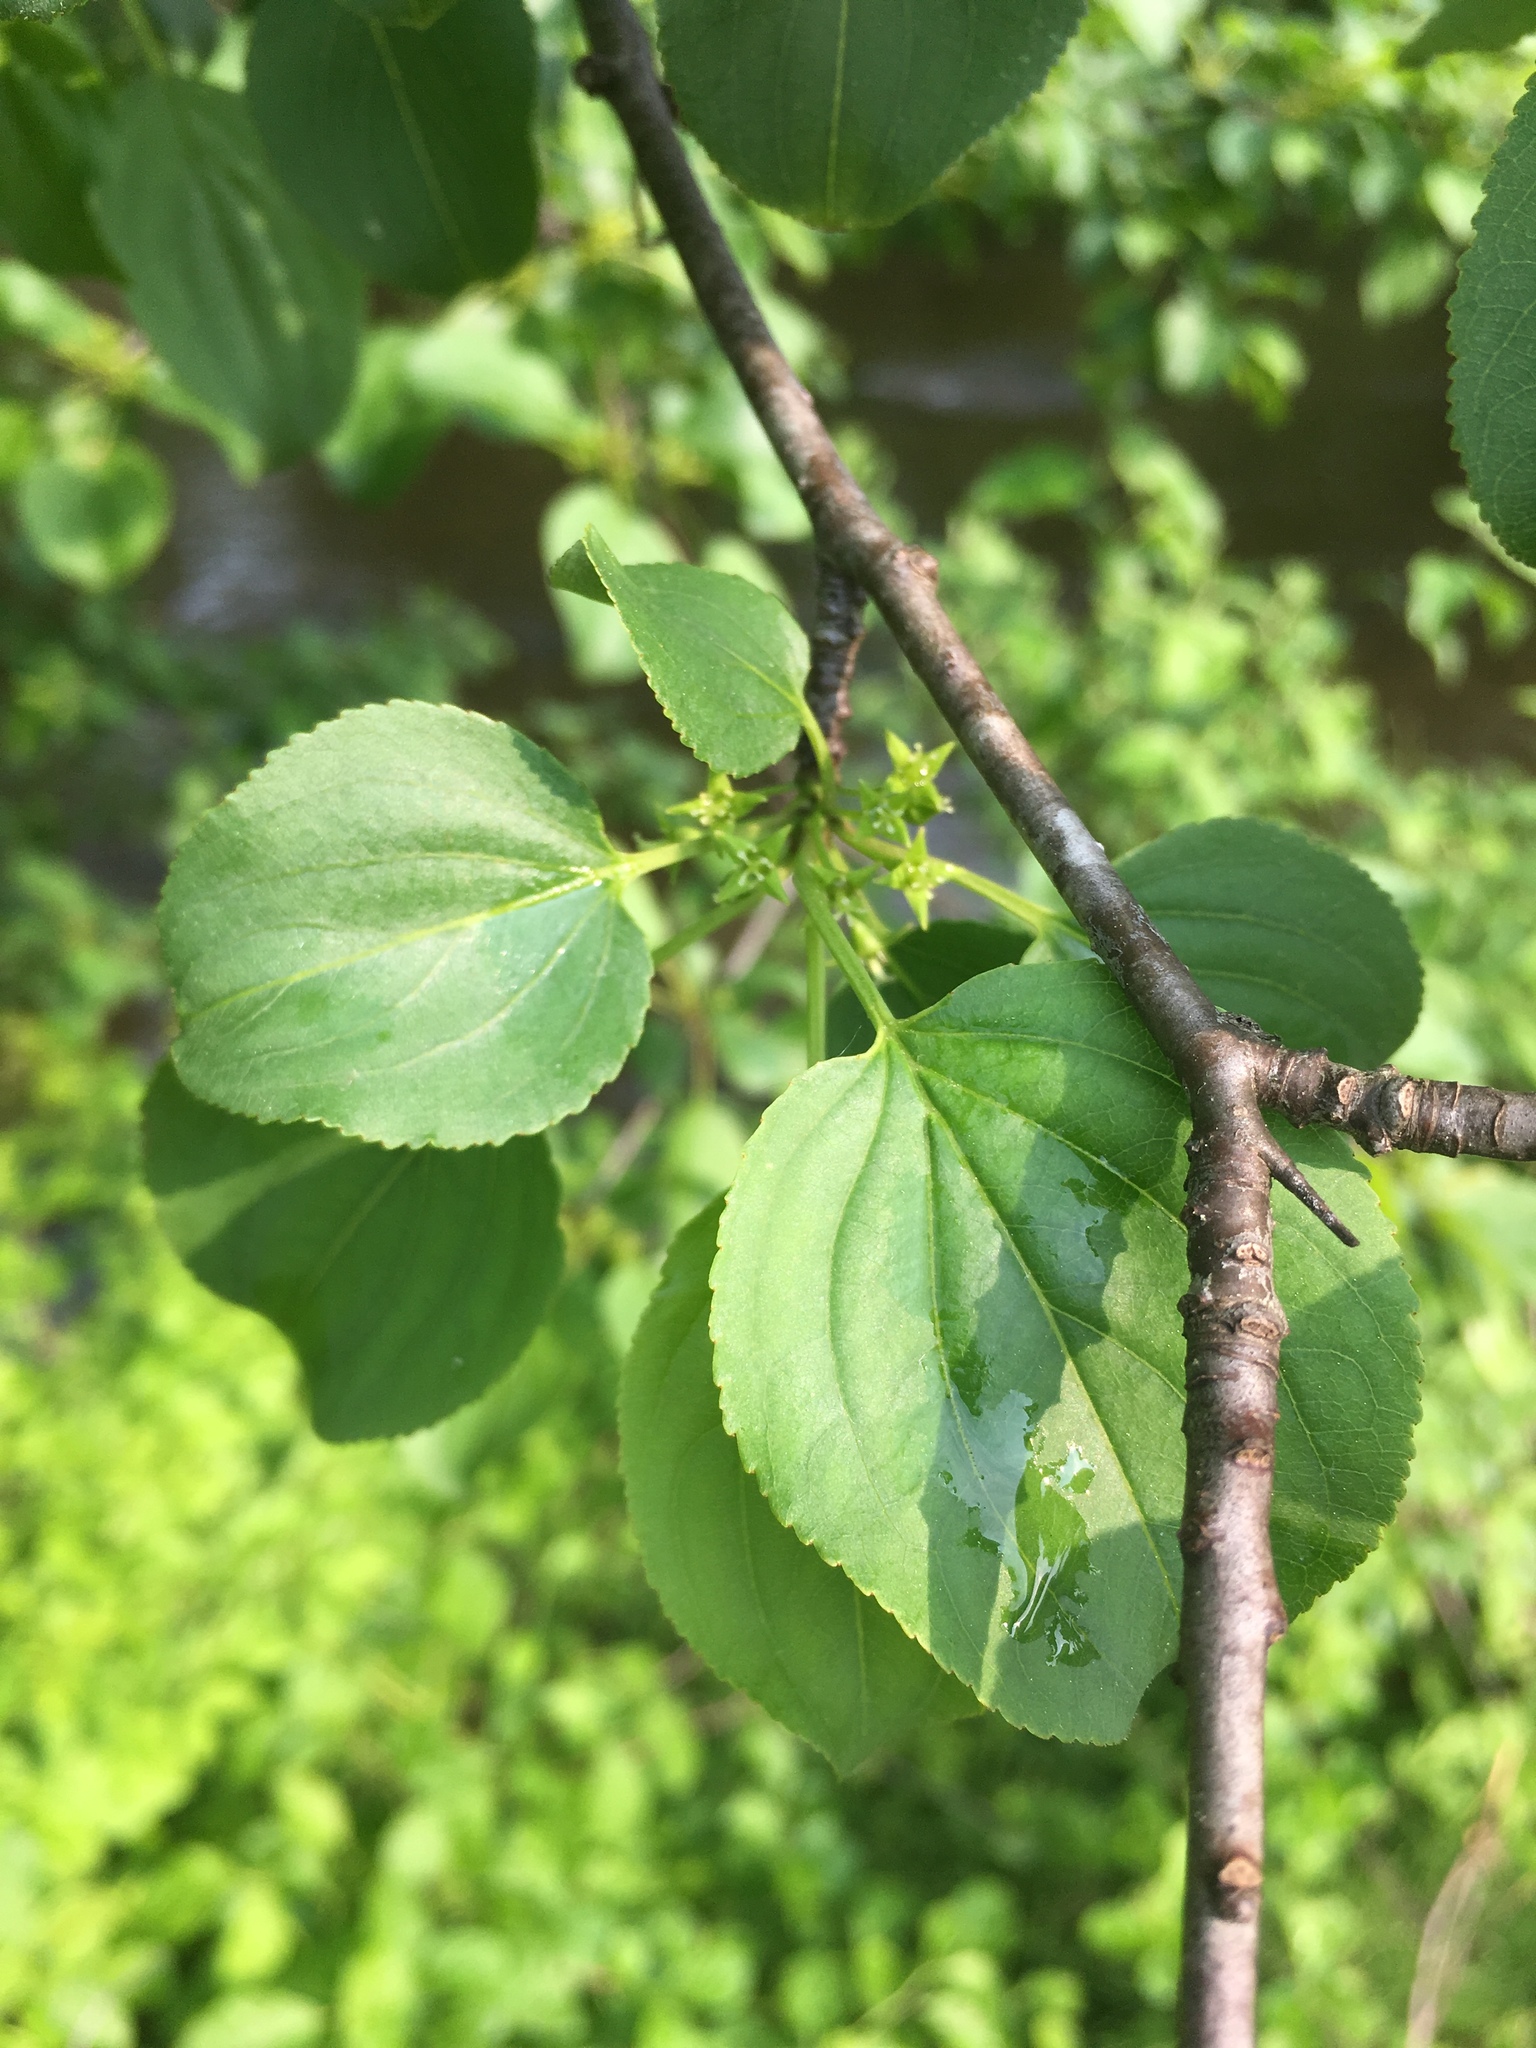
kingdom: Plantae
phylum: Tracheophyta
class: Magnoliopsida
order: Rosales
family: Rhamnaceae
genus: Rhamnus
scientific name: Rhamnus cathartica
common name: Common buckthorn
